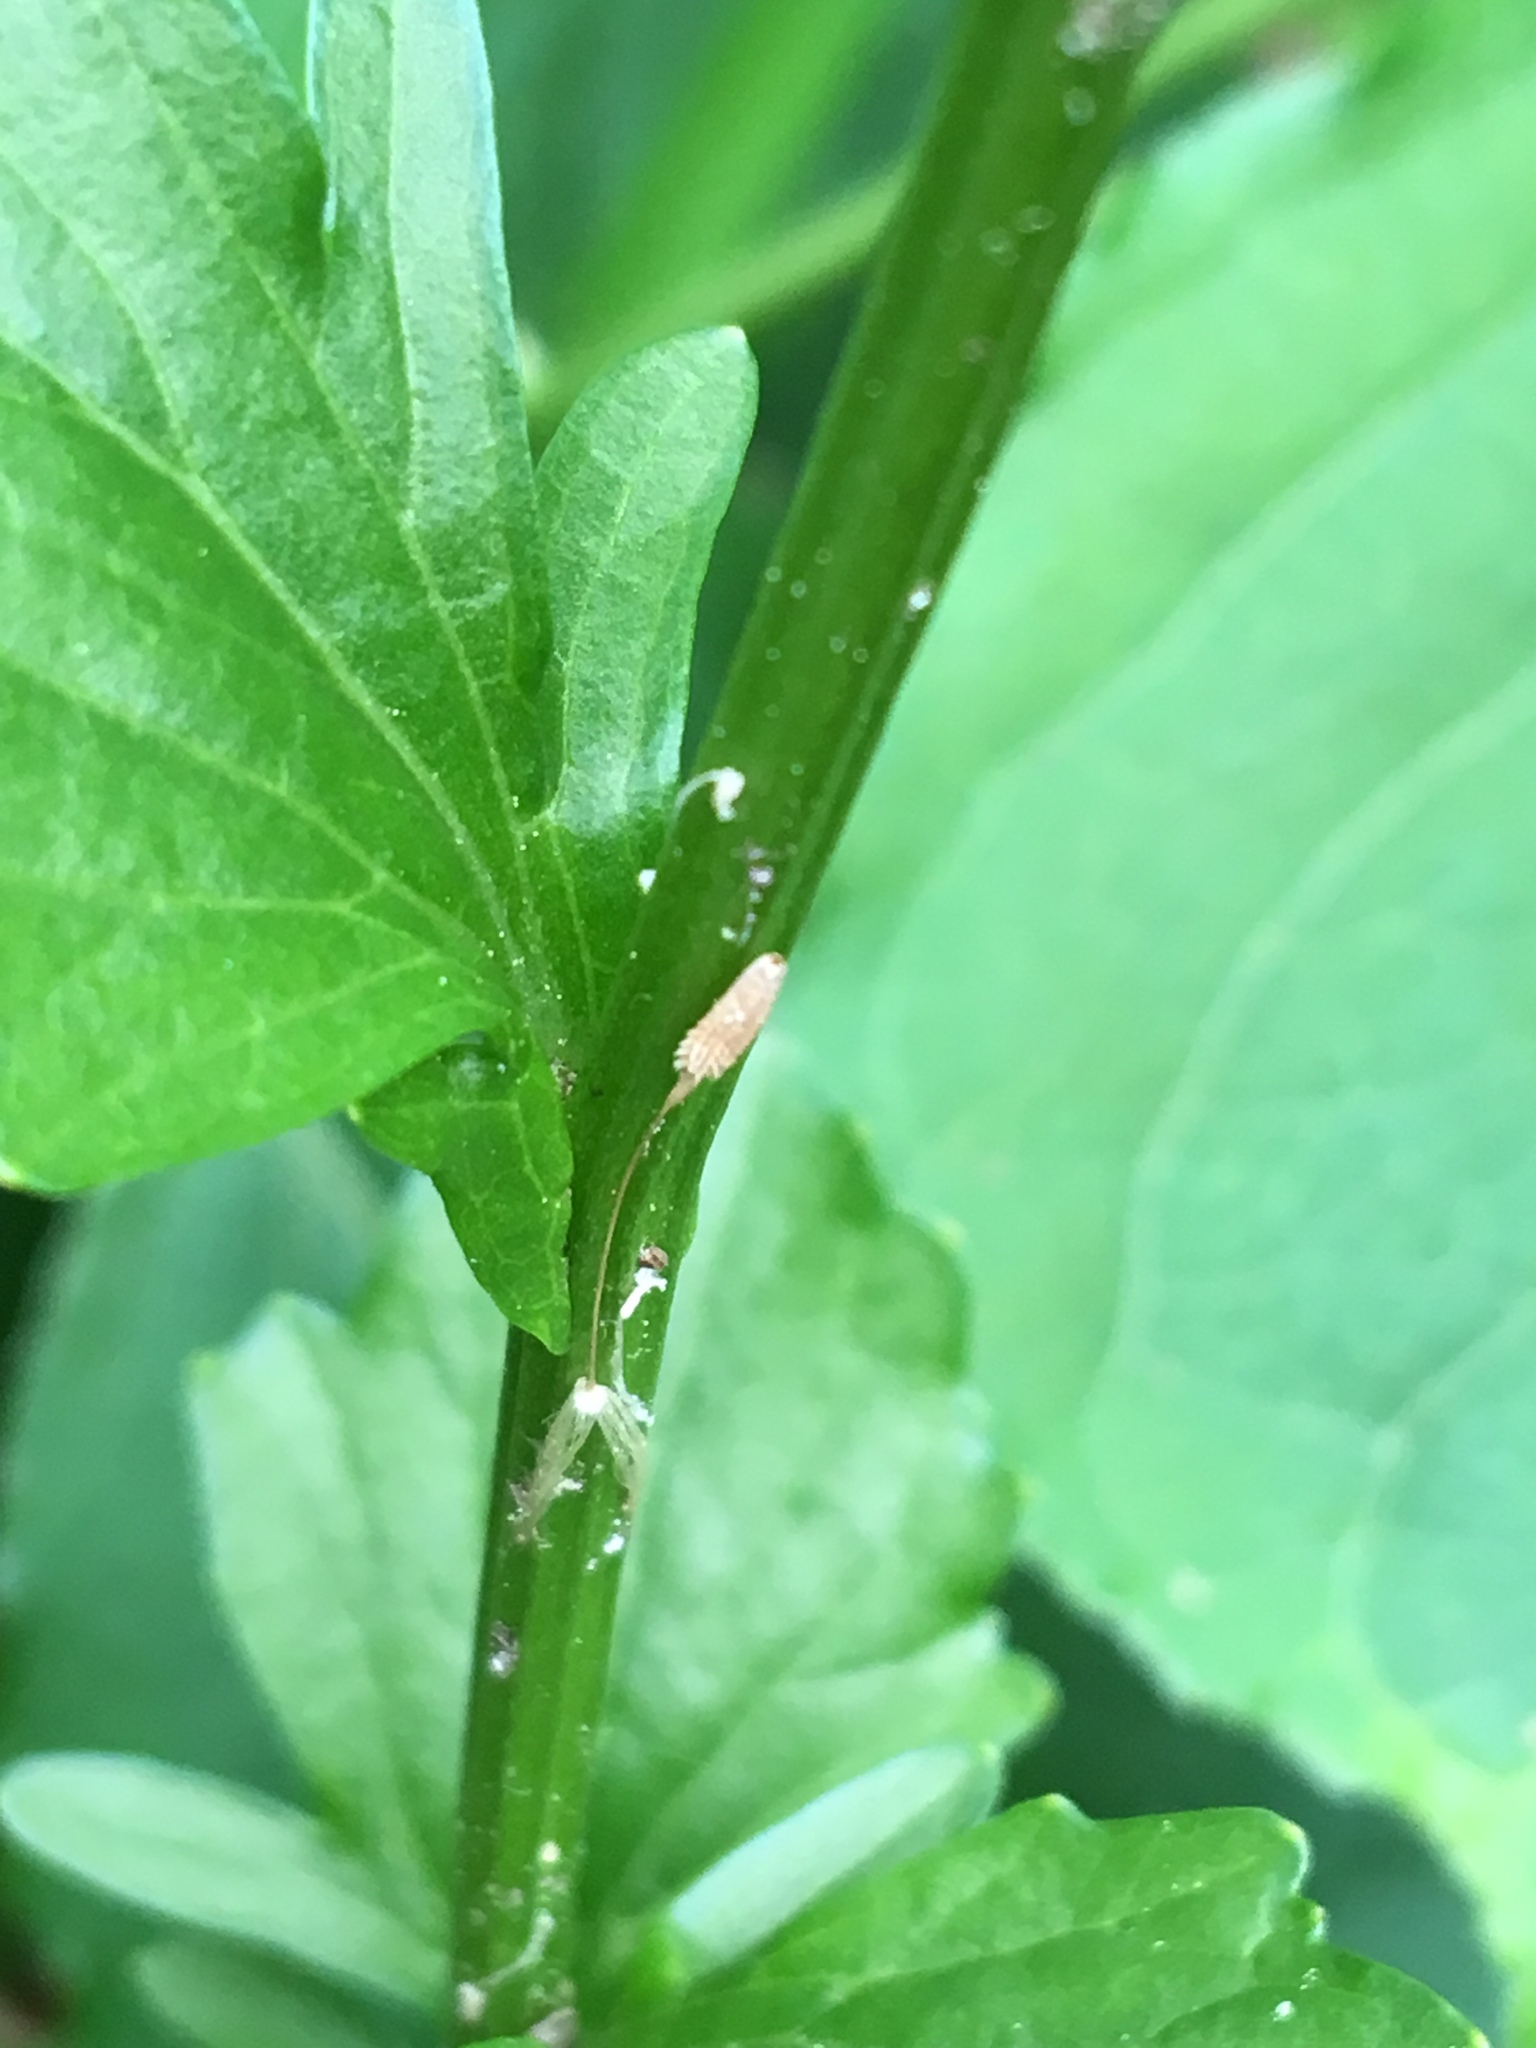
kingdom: Plantae
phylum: Tracheophyta
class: Magnoliopsida
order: Brassicales
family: Brassicaceae
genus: Barbarea
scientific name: Barbarea vulgaris
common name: Cressy-greens
